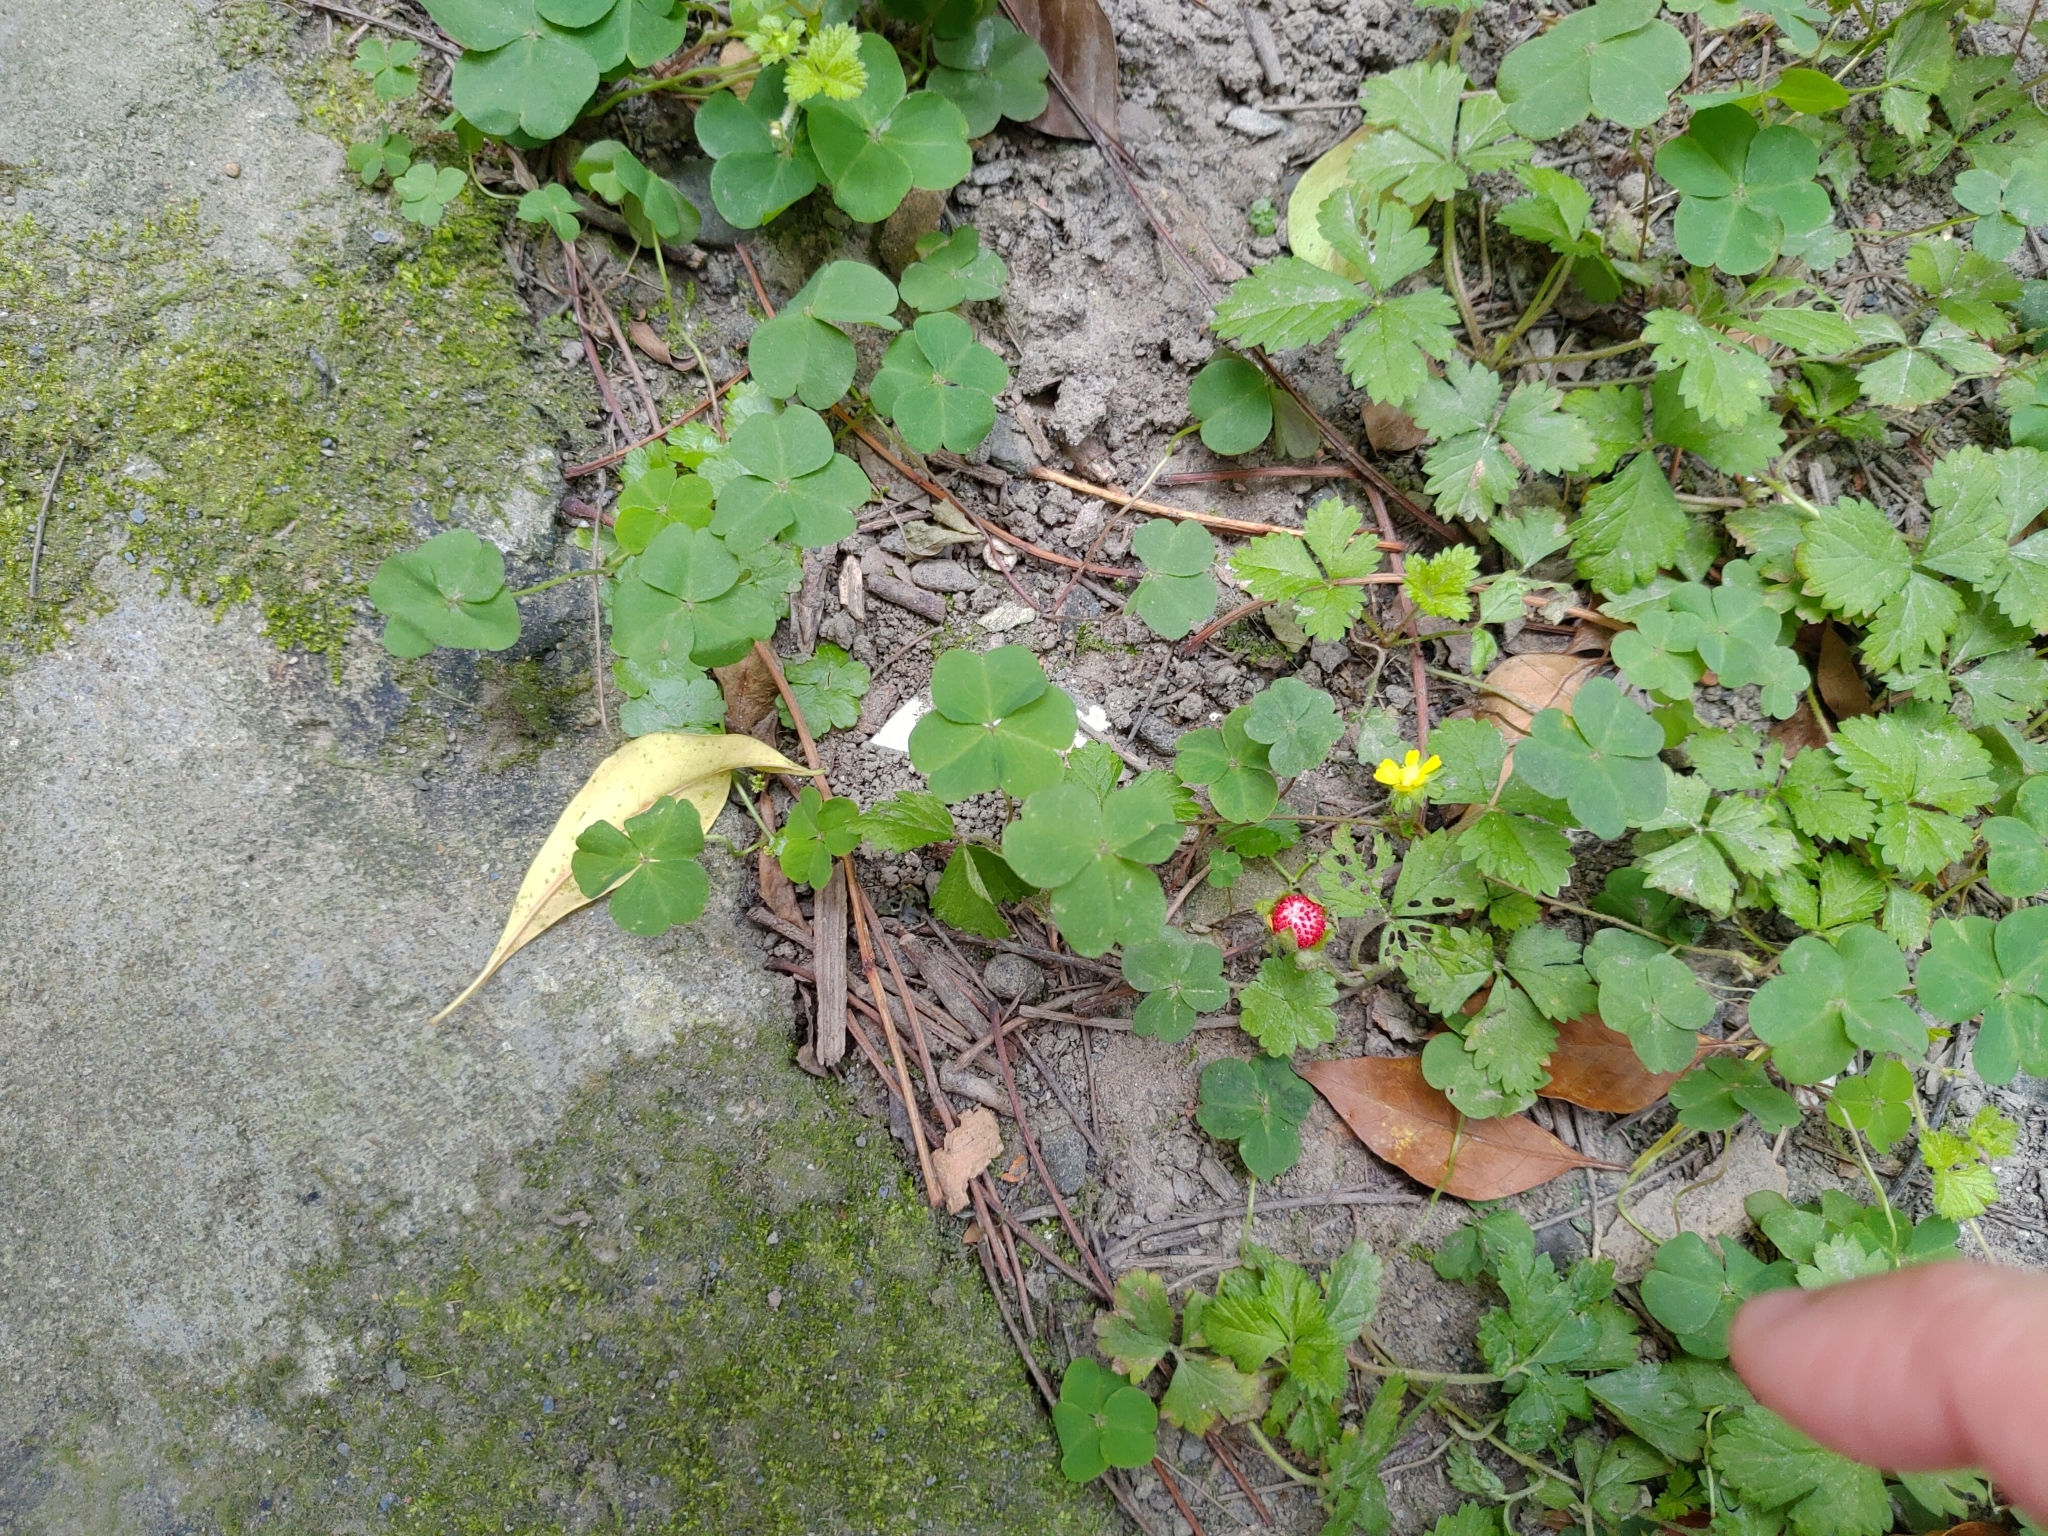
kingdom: Plantae
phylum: Tracheophyta
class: Magnoliopsida
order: Rosales
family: Rosaceae
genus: Potentilla
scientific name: Potentilla wallichiana
